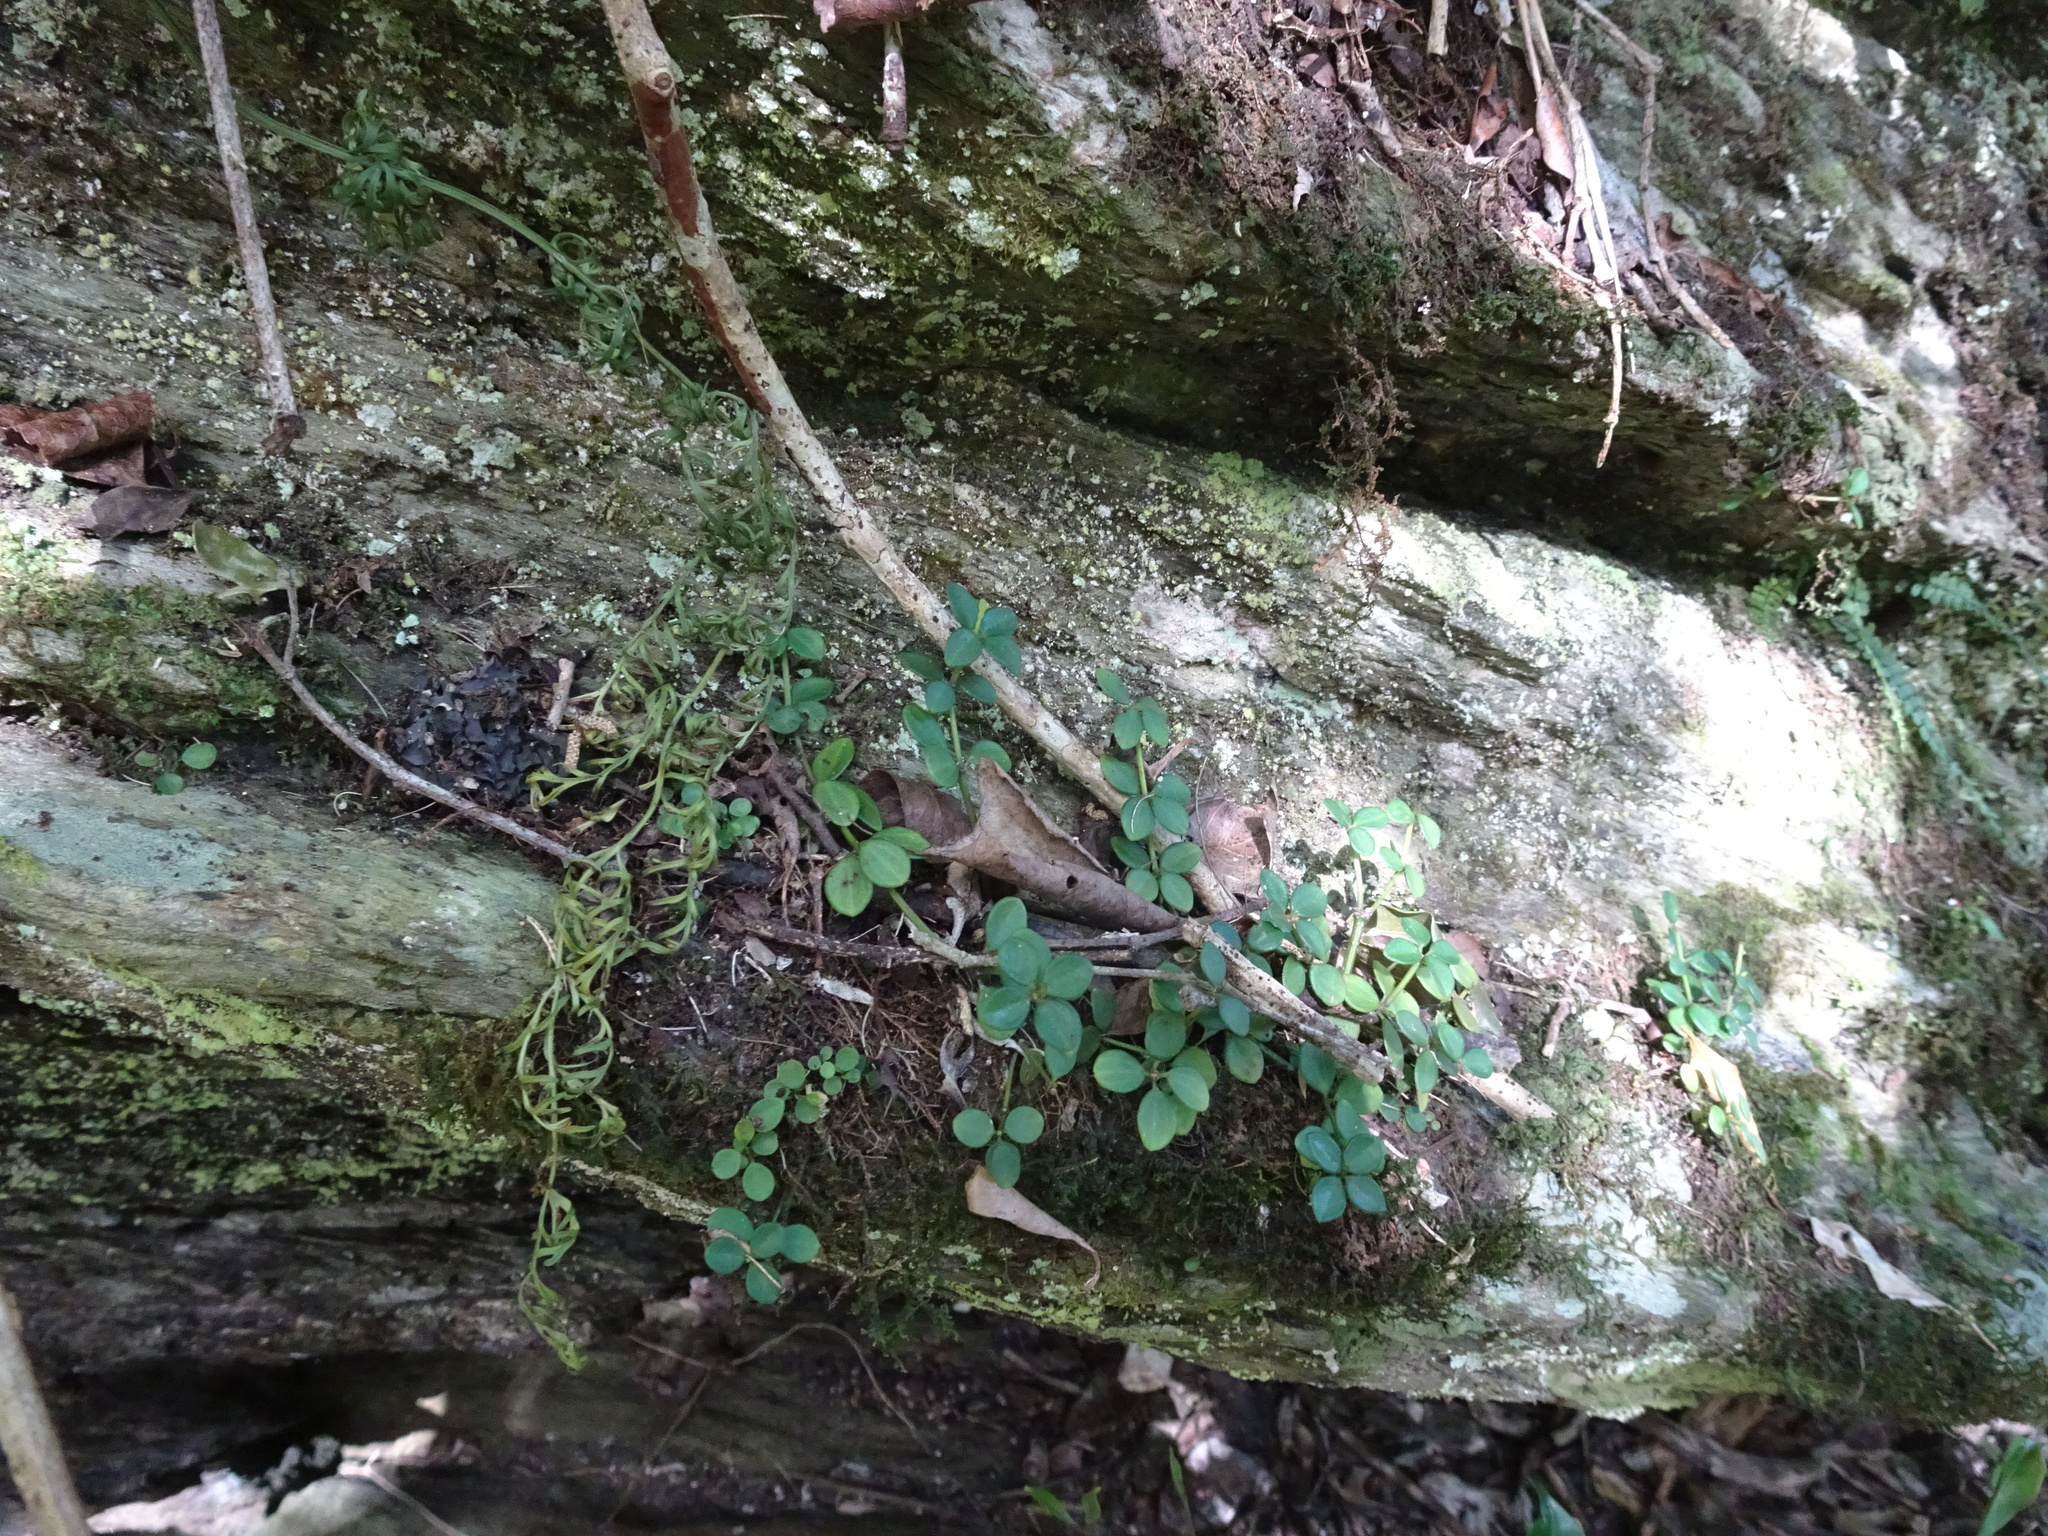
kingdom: Plantae
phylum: Tracheophyta
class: Magnoliopsida
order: Piperales
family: Piperaceae
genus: Peperomia
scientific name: Peperomia retusa
